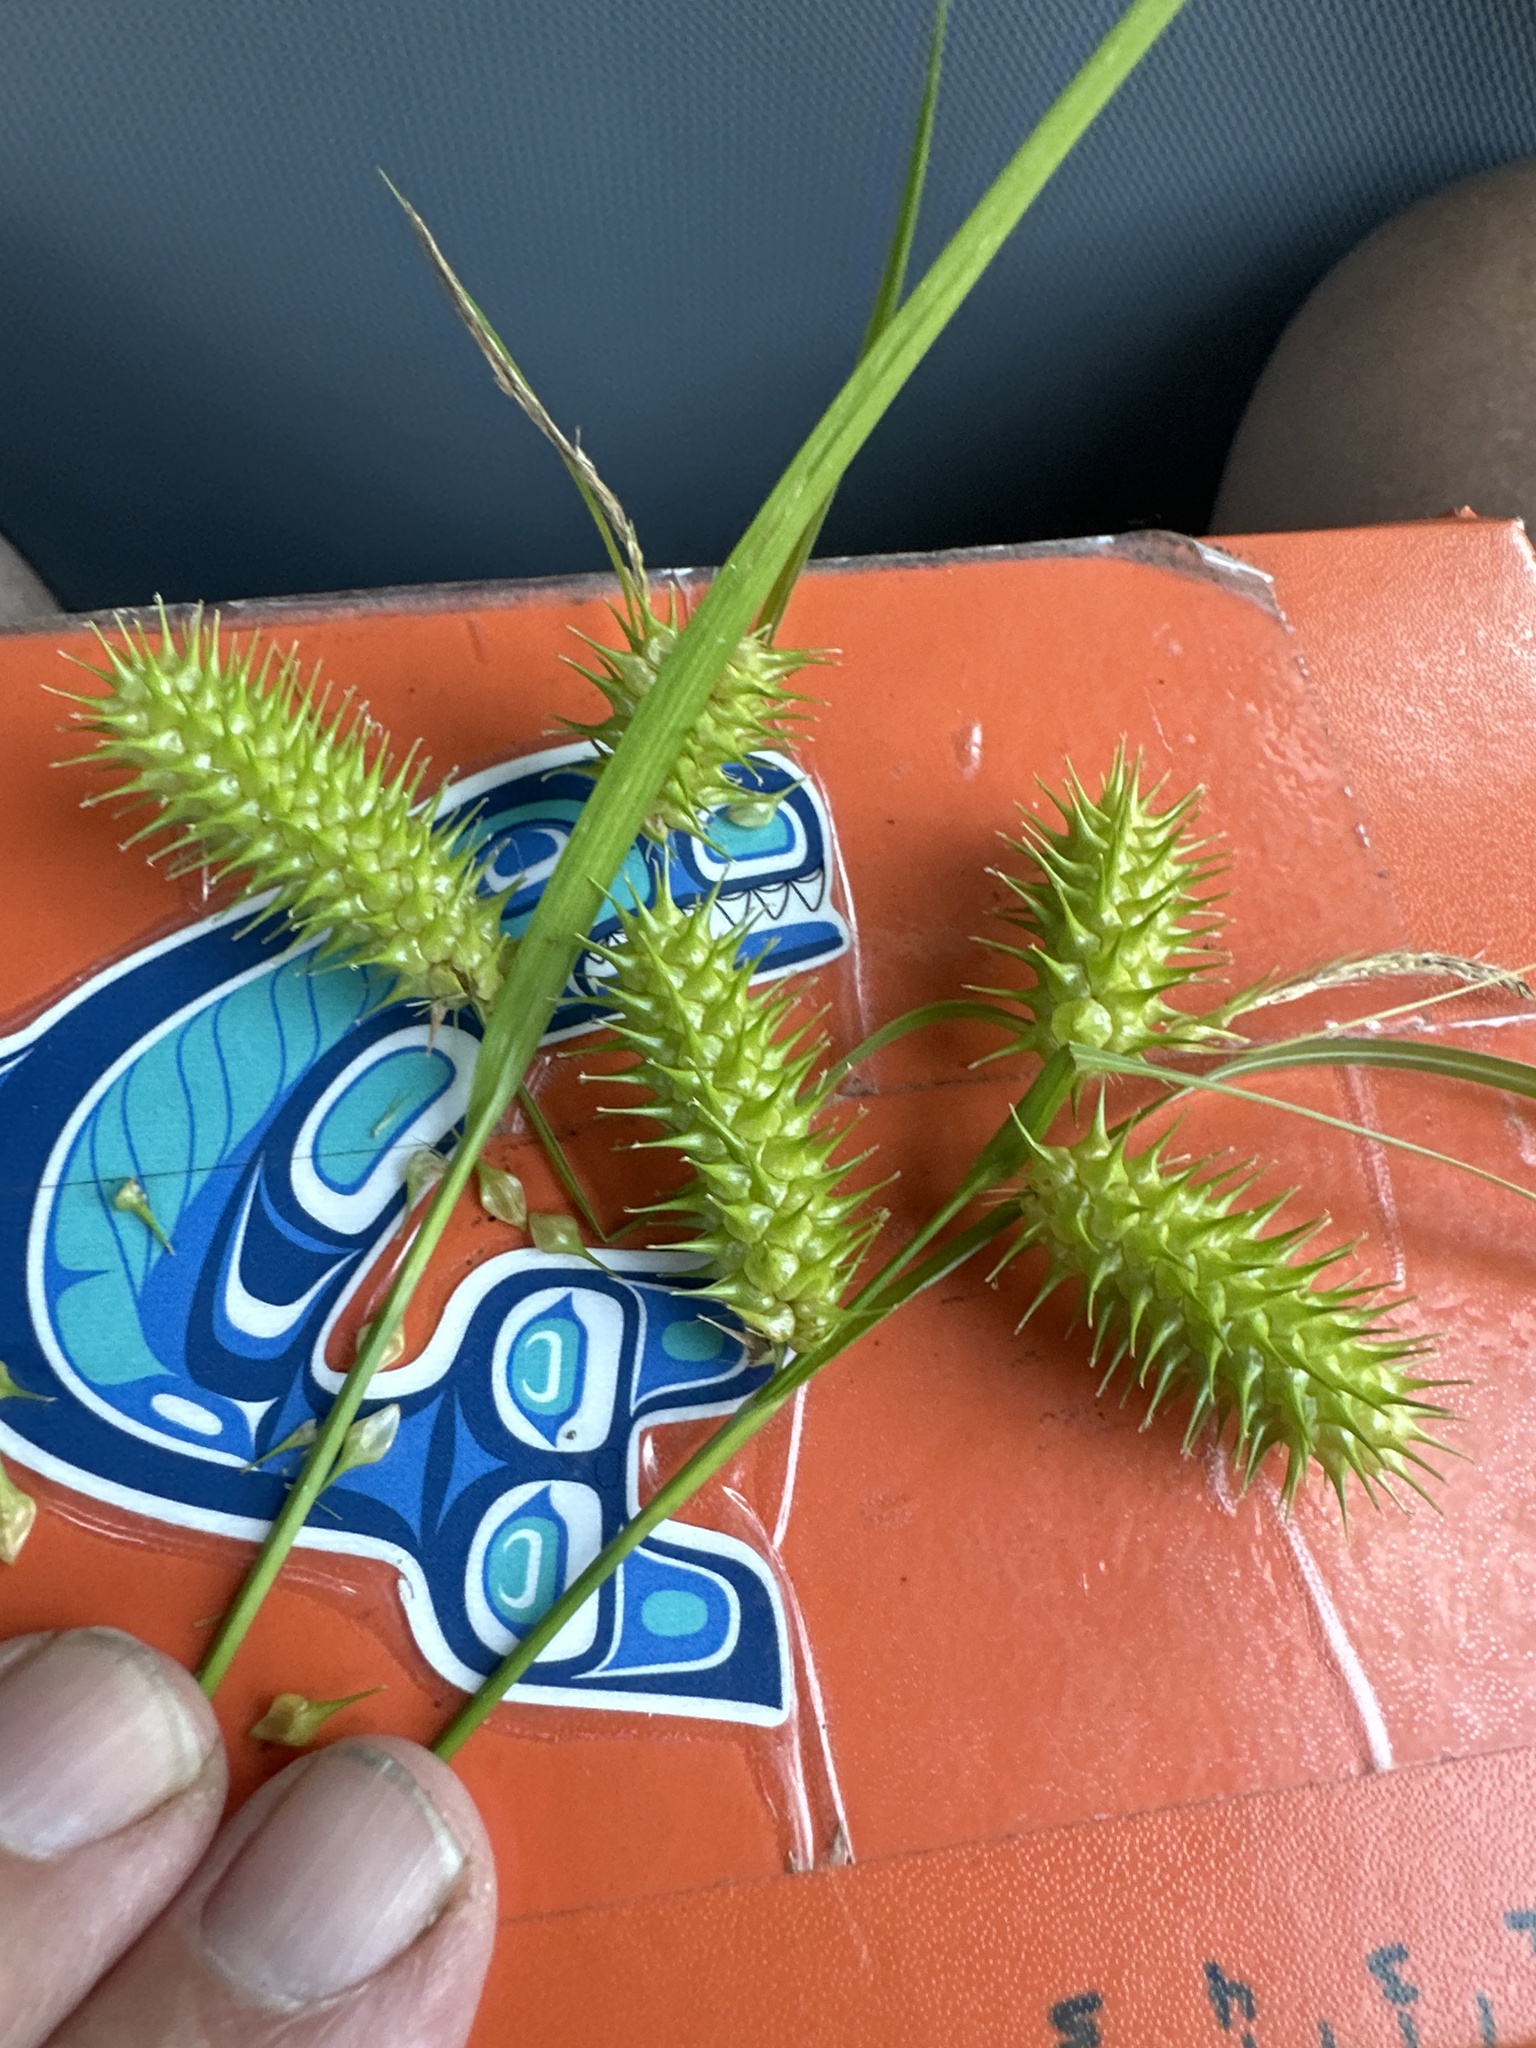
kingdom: Plantae
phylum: Tracheophyta
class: Liliopsida
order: Poales
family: Cyperaceae
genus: Carex
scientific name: Carex lurida
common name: Sallow sedge
